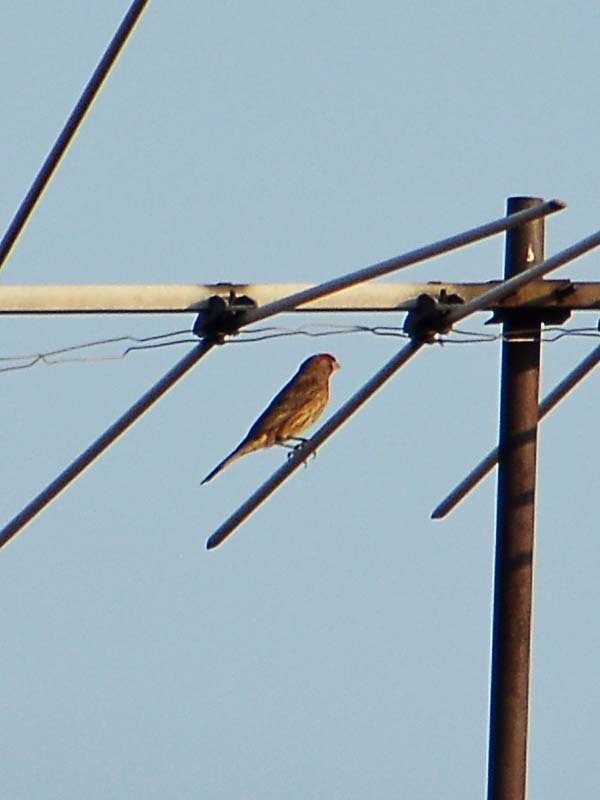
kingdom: Animalia
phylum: Chordata
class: Aves
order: Passeriformes
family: Fringillidae
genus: Haemorhous
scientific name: Haemorhous mexicanus
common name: House finch
